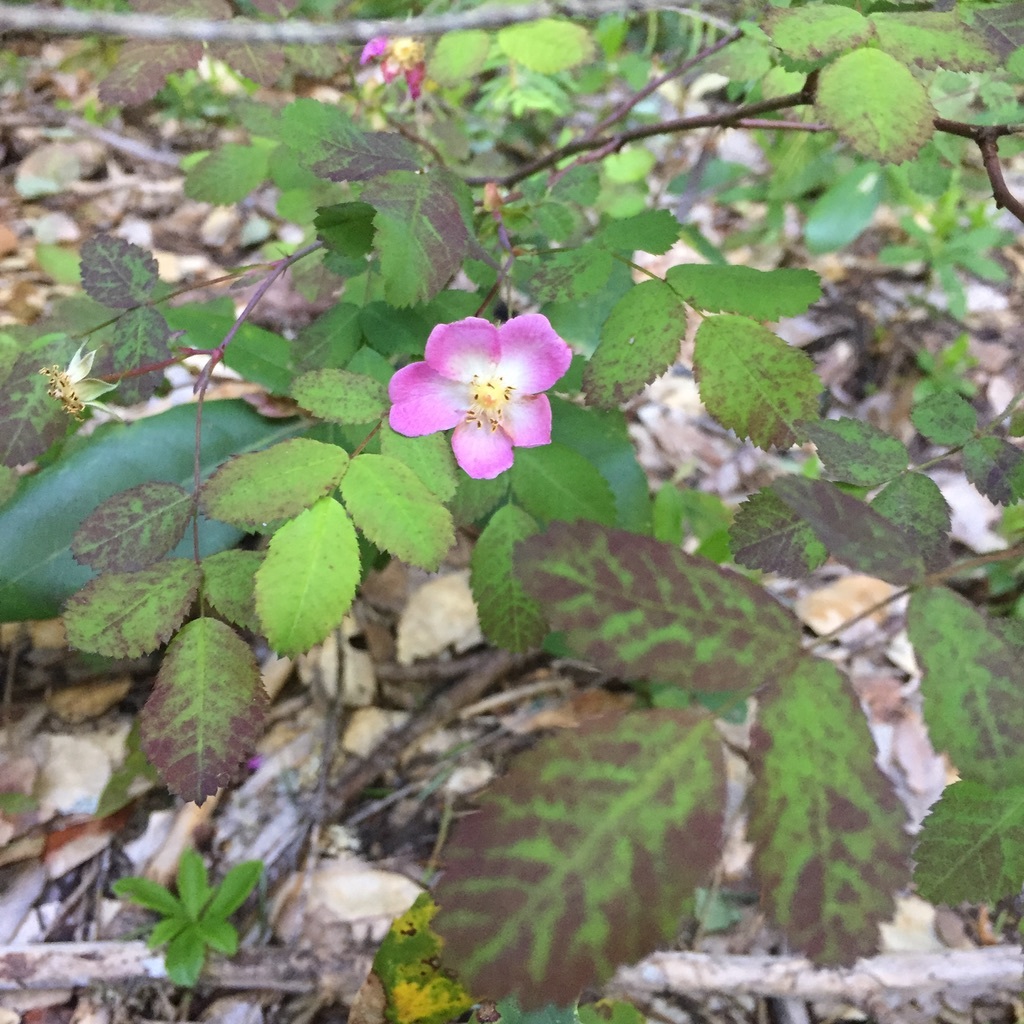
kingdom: Plantae
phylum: Tracheophyta
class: Magnoliopsida
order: Rosales
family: Rosaceae
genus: Rosa
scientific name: Rosa californica
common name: California rose
